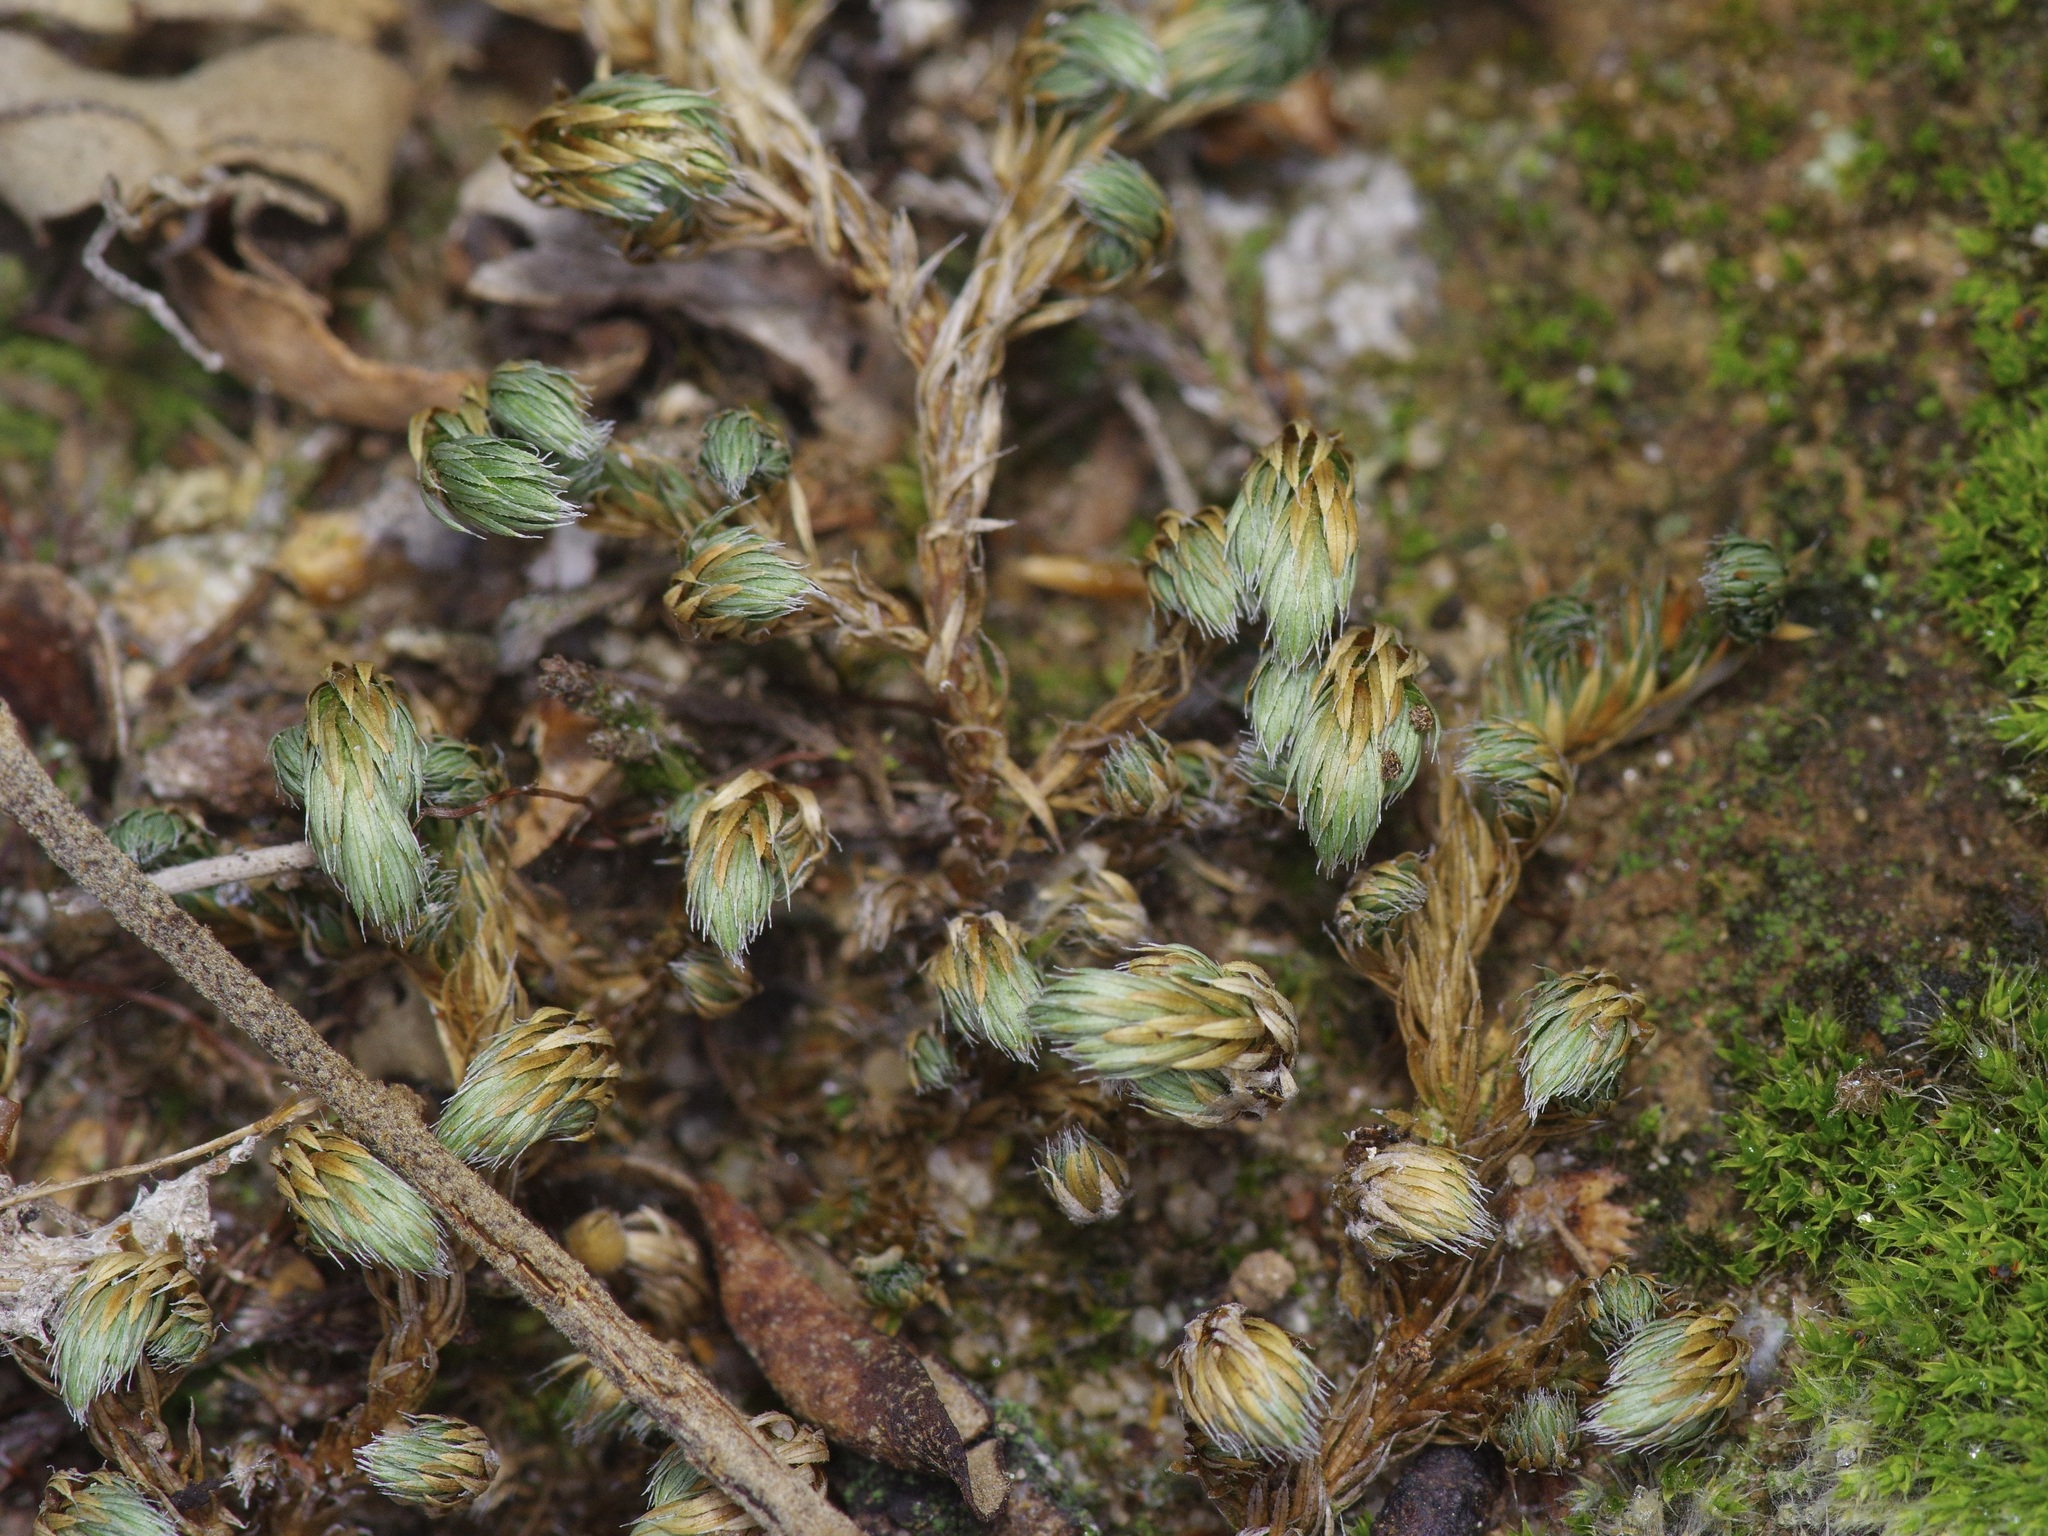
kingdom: Plantae
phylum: Tracheophyta
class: Lycopodiopsida
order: Selaginellales
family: Selaginellaceae
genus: Selaginella
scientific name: Selaginella peruviana
